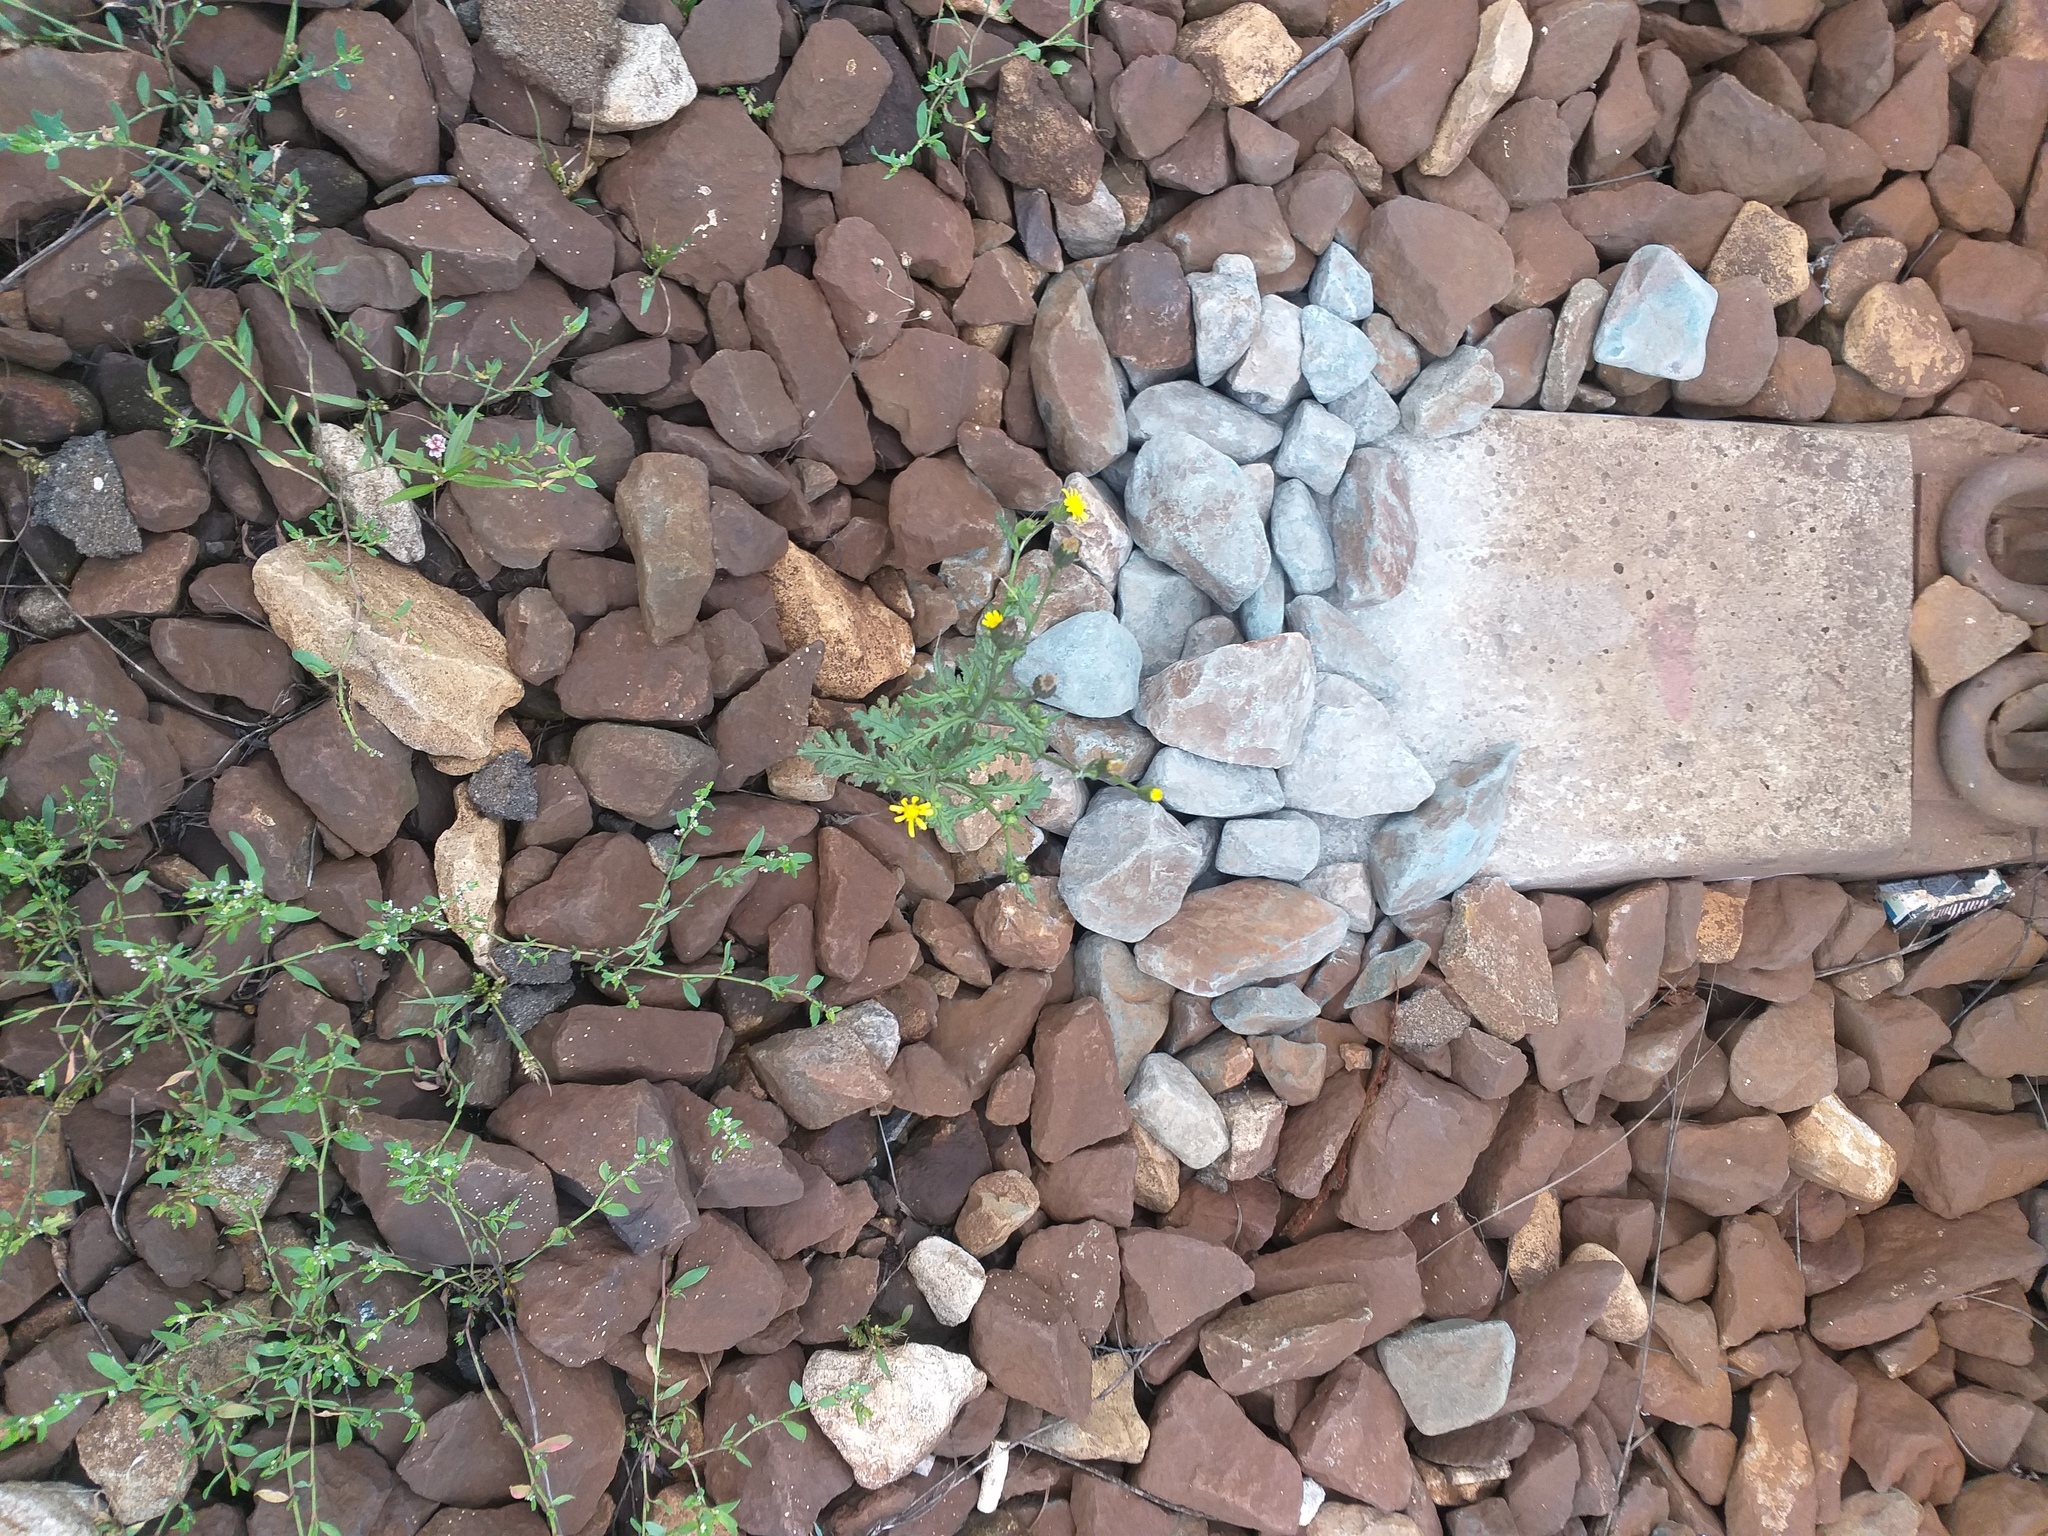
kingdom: Plantae
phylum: Tracheophyta
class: Magnoliopsida
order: Asterales
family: Asteraceae
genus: Senecio
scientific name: Senecio viscosus
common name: Sticky groundsel
